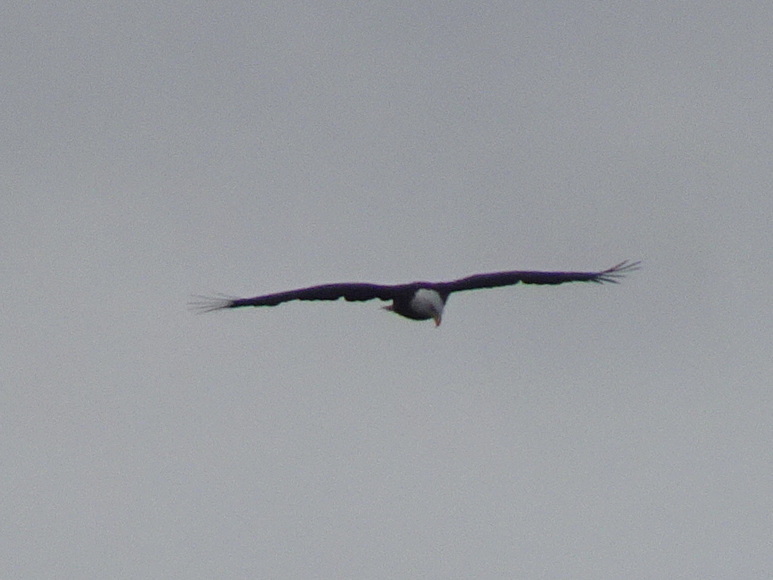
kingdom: Animalia
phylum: Chordata
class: Aves
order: Accipitriformes
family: Accipitridae
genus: Haliaeetus
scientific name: Haliaeetus leucocephalus
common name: Bald eagle
